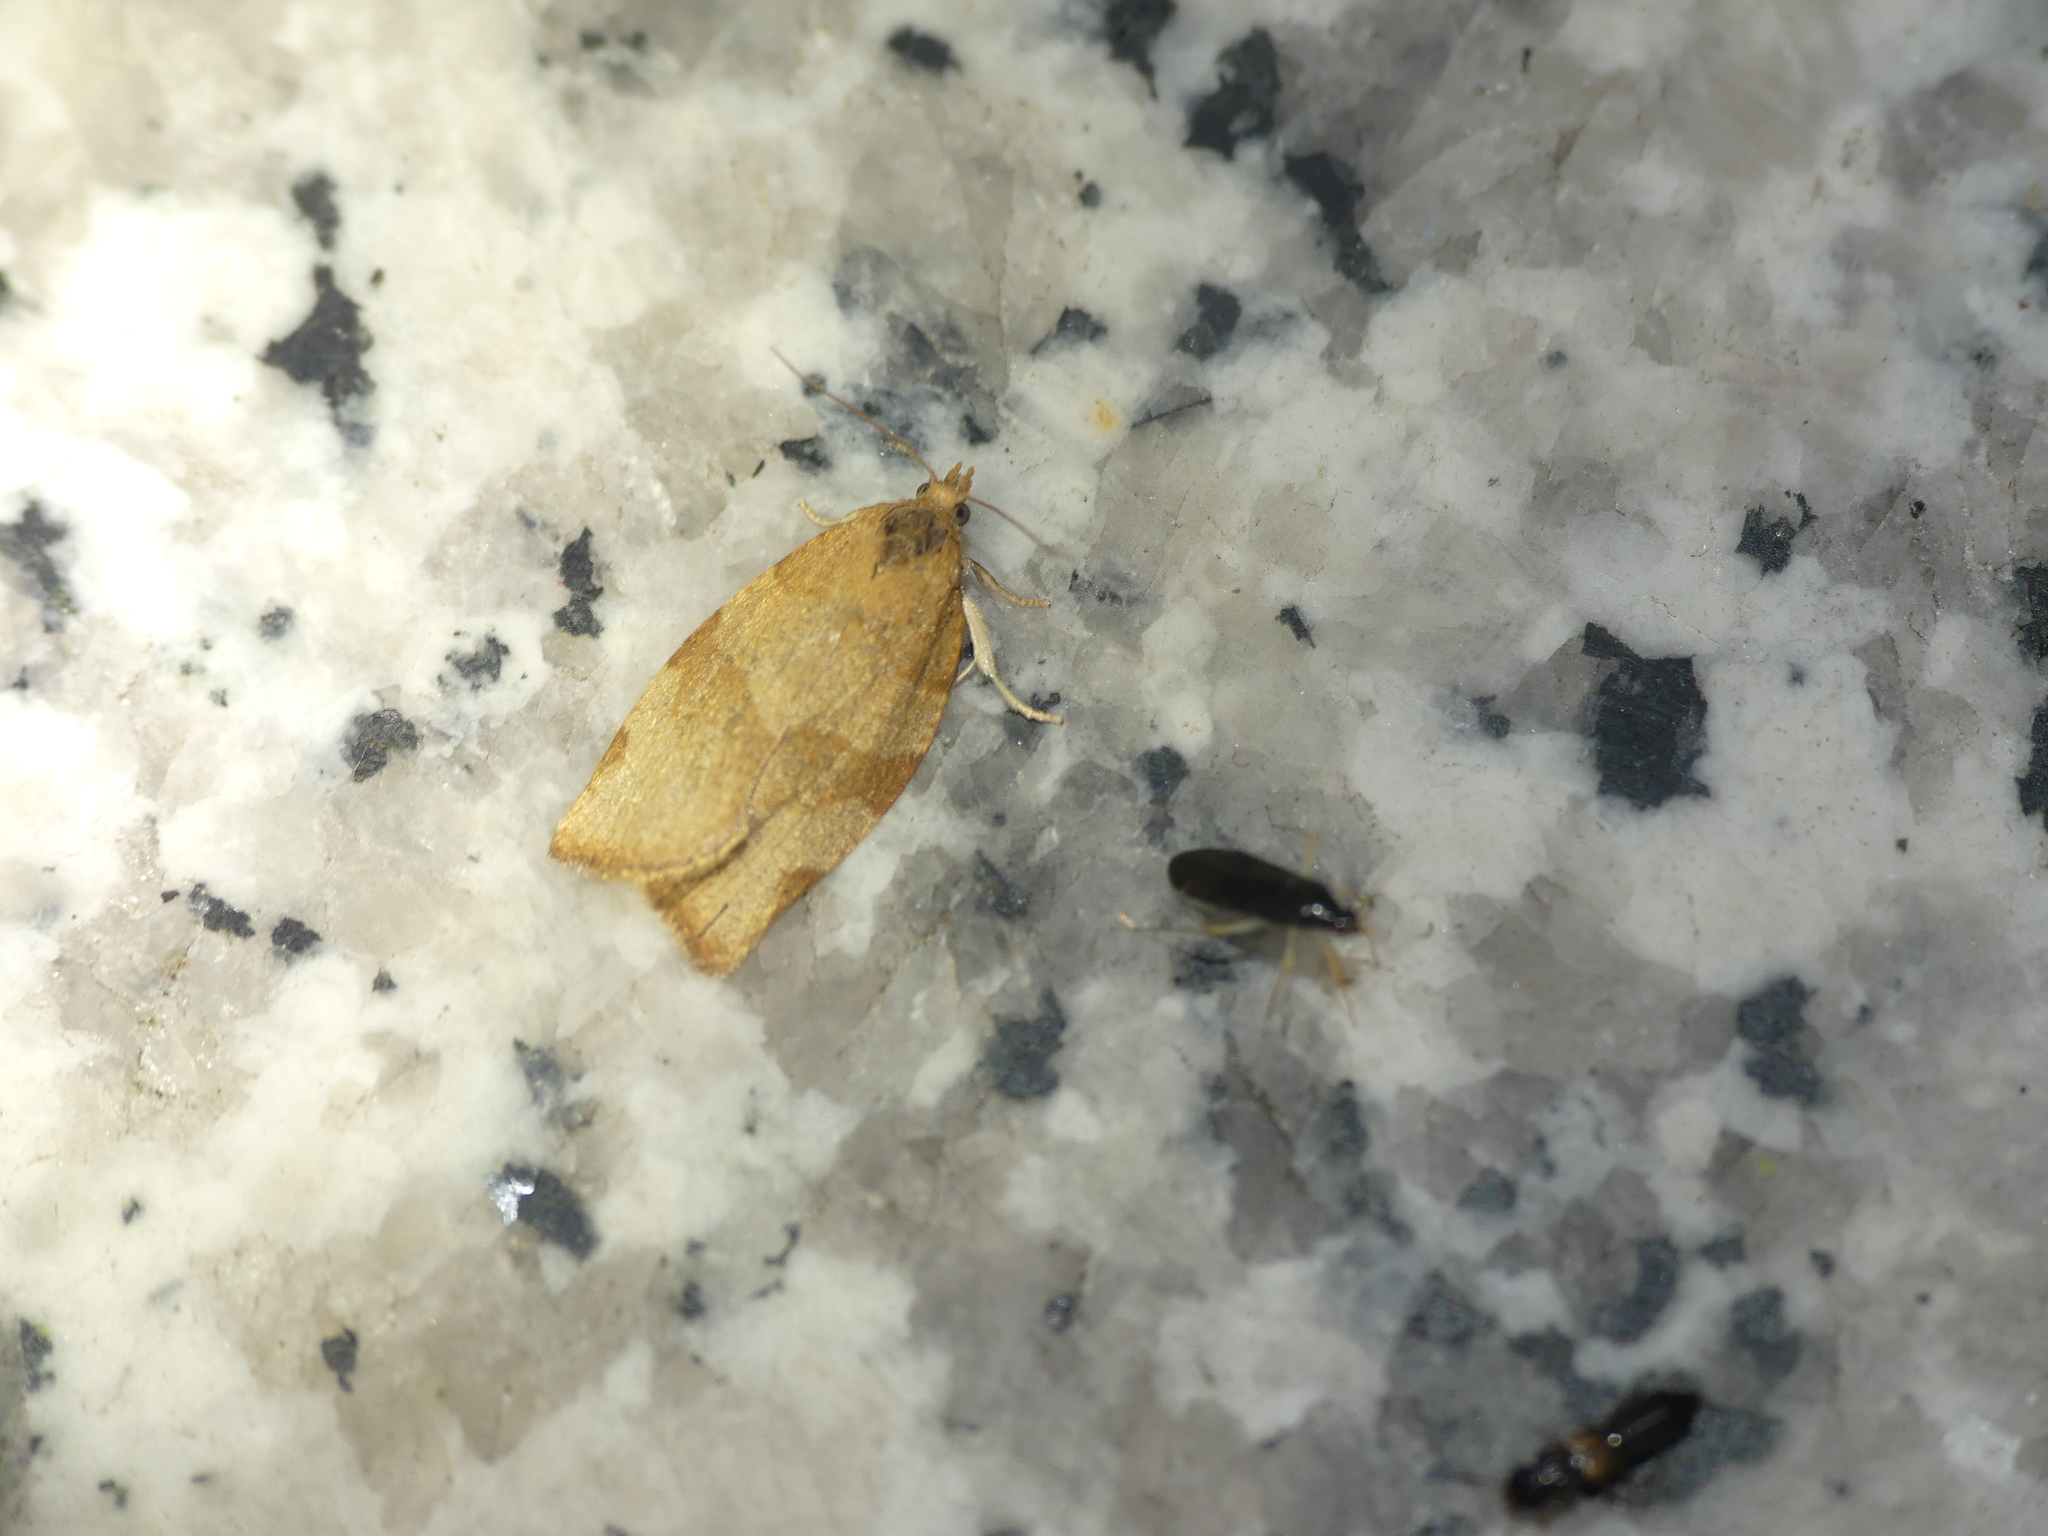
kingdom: Animalia
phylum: Arthropoda
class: Insecta
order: Lepidoptera
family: Tortricidae
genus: Pandemis
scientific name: Pandemis cerasana
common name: Barred fruit-tree tortrix
